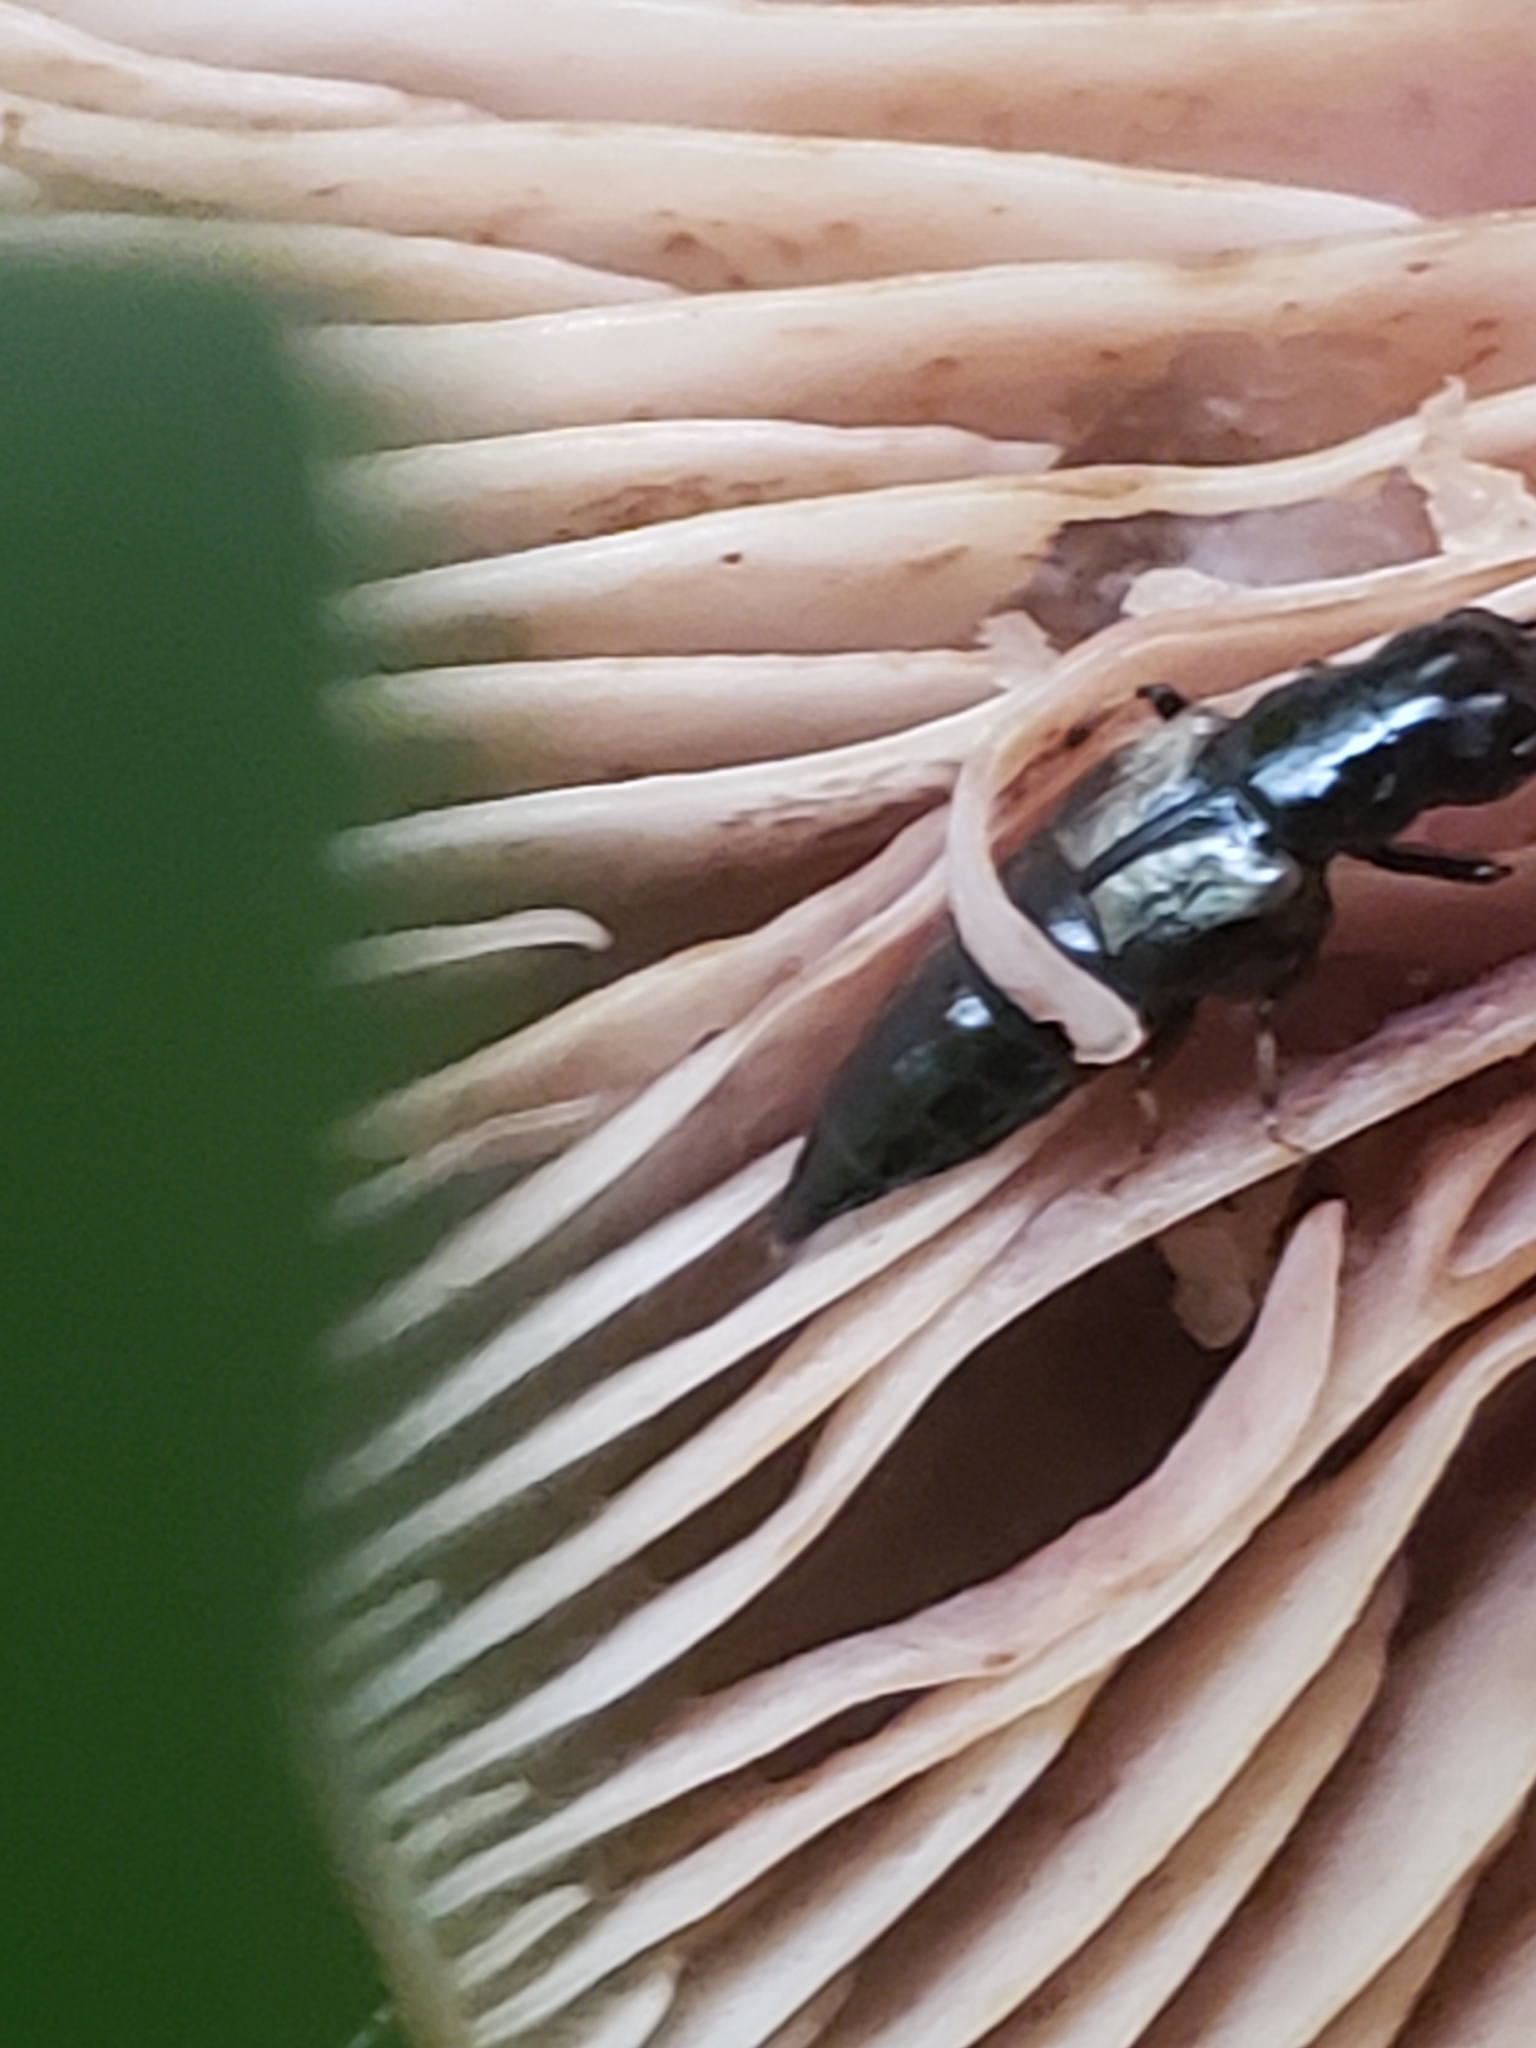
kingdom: Animalia
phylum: Arthropoda
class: Insecta
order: Coleoptera
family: Staphylinidae
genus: Oxyporus
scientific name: Oxyporus femoralis
